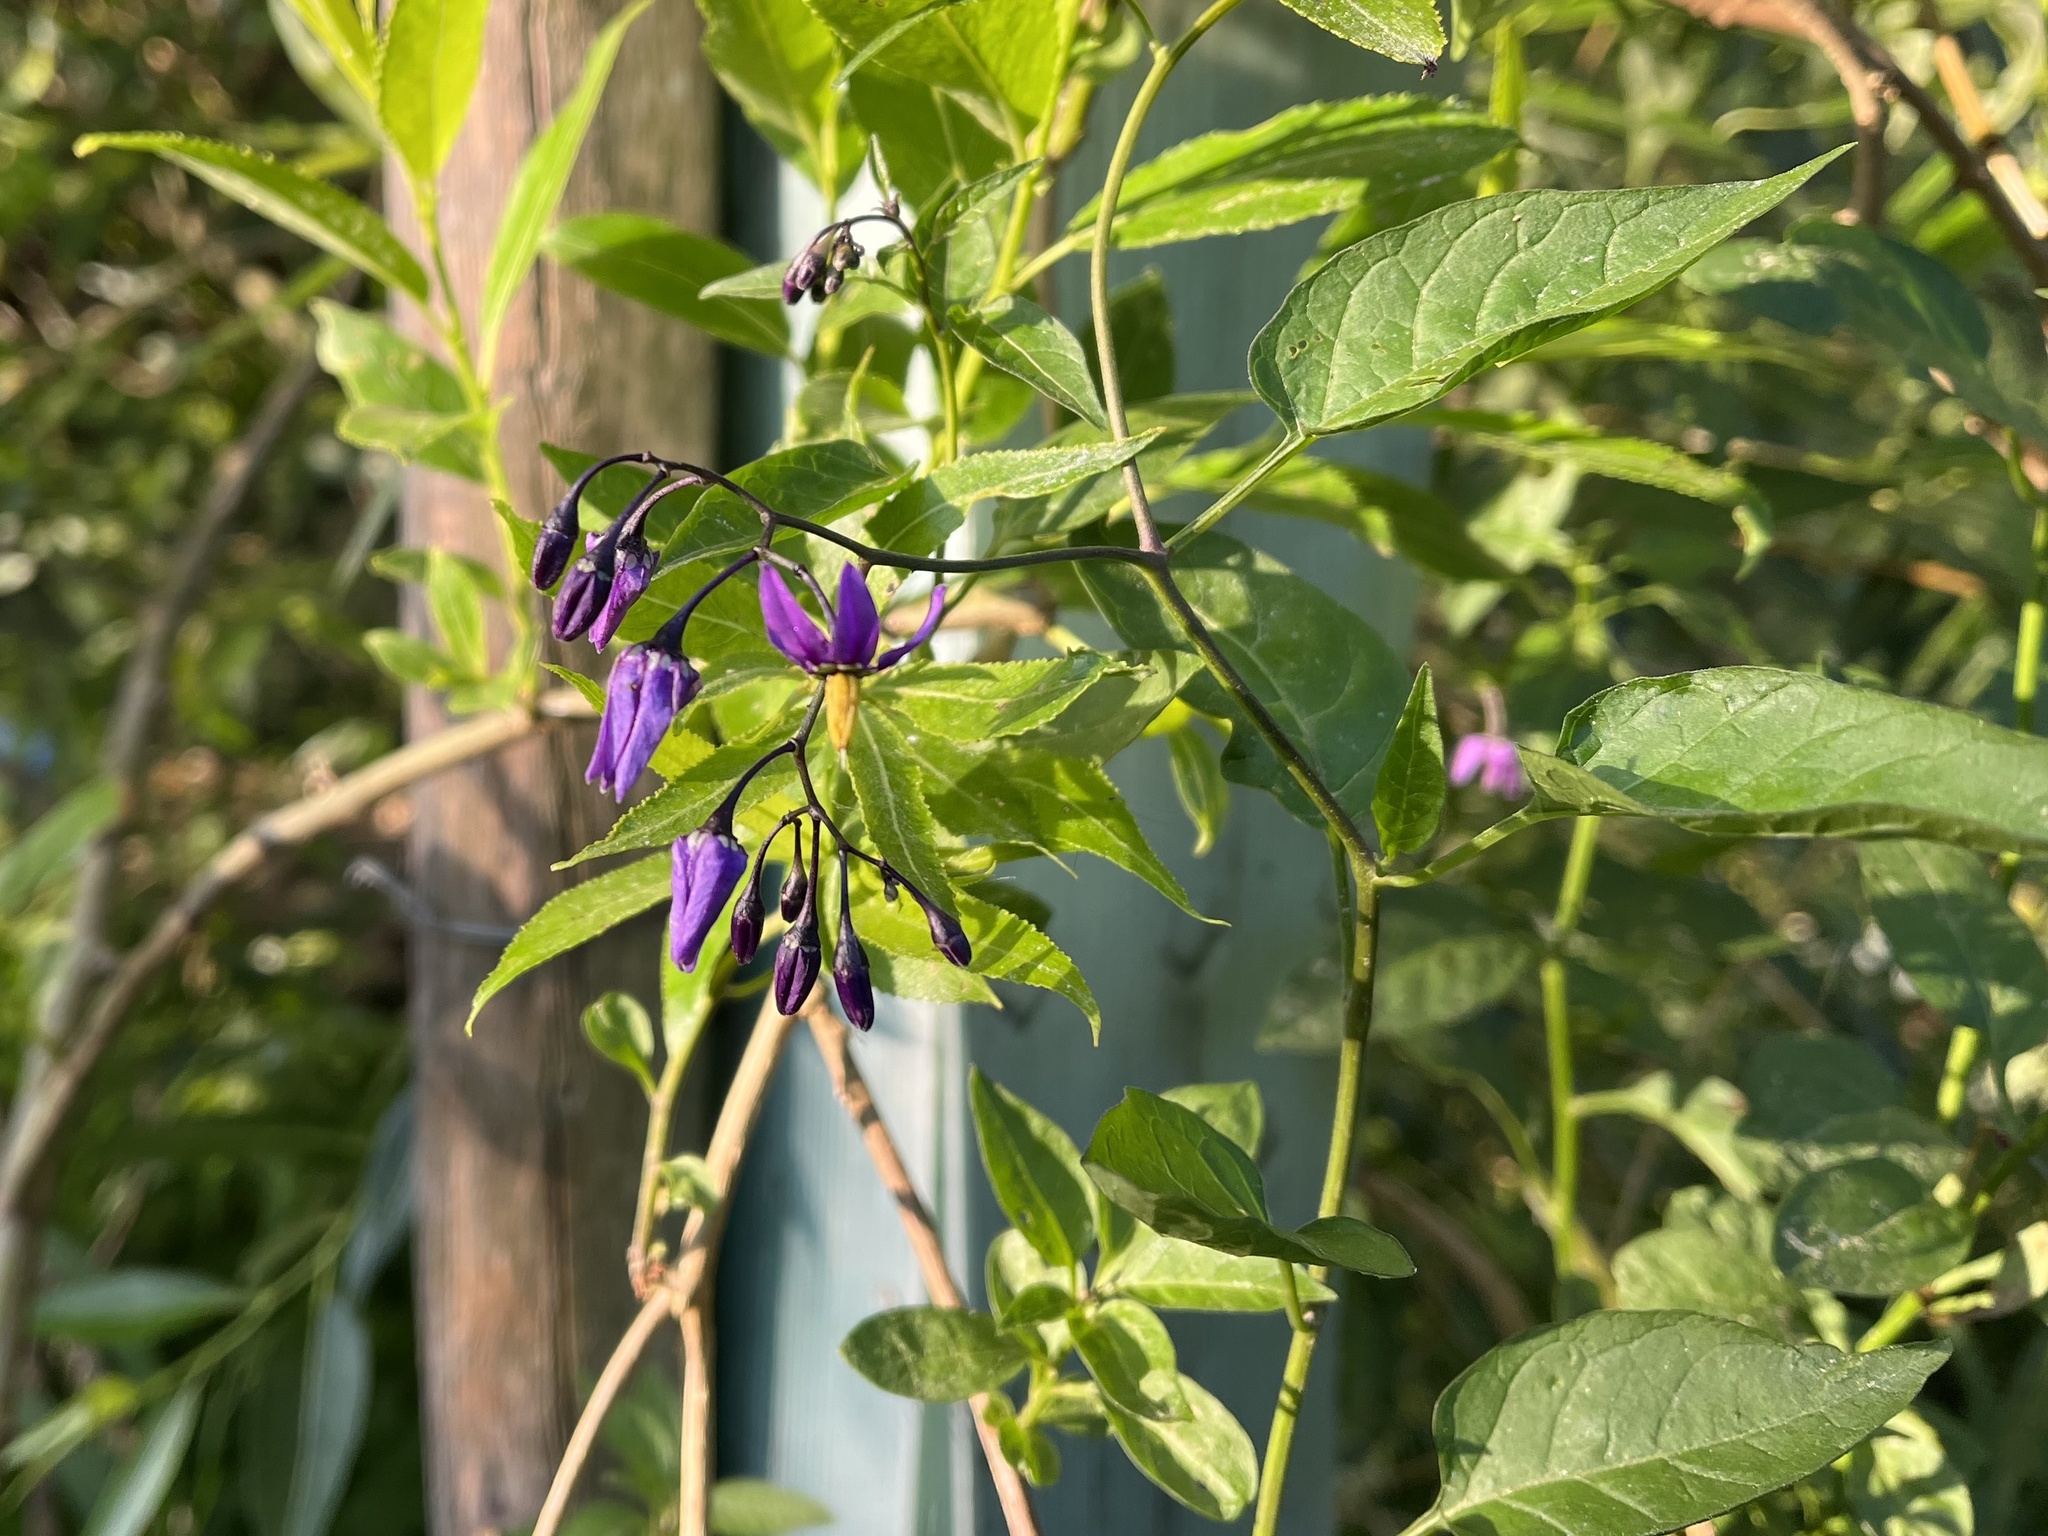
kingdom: Plantae
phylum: Tracheophyta
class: Magnoliopsida
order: Solanales
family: Solanaceae
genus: Solanum
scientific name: Solanum dulcamara
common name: Climbing nightshade
